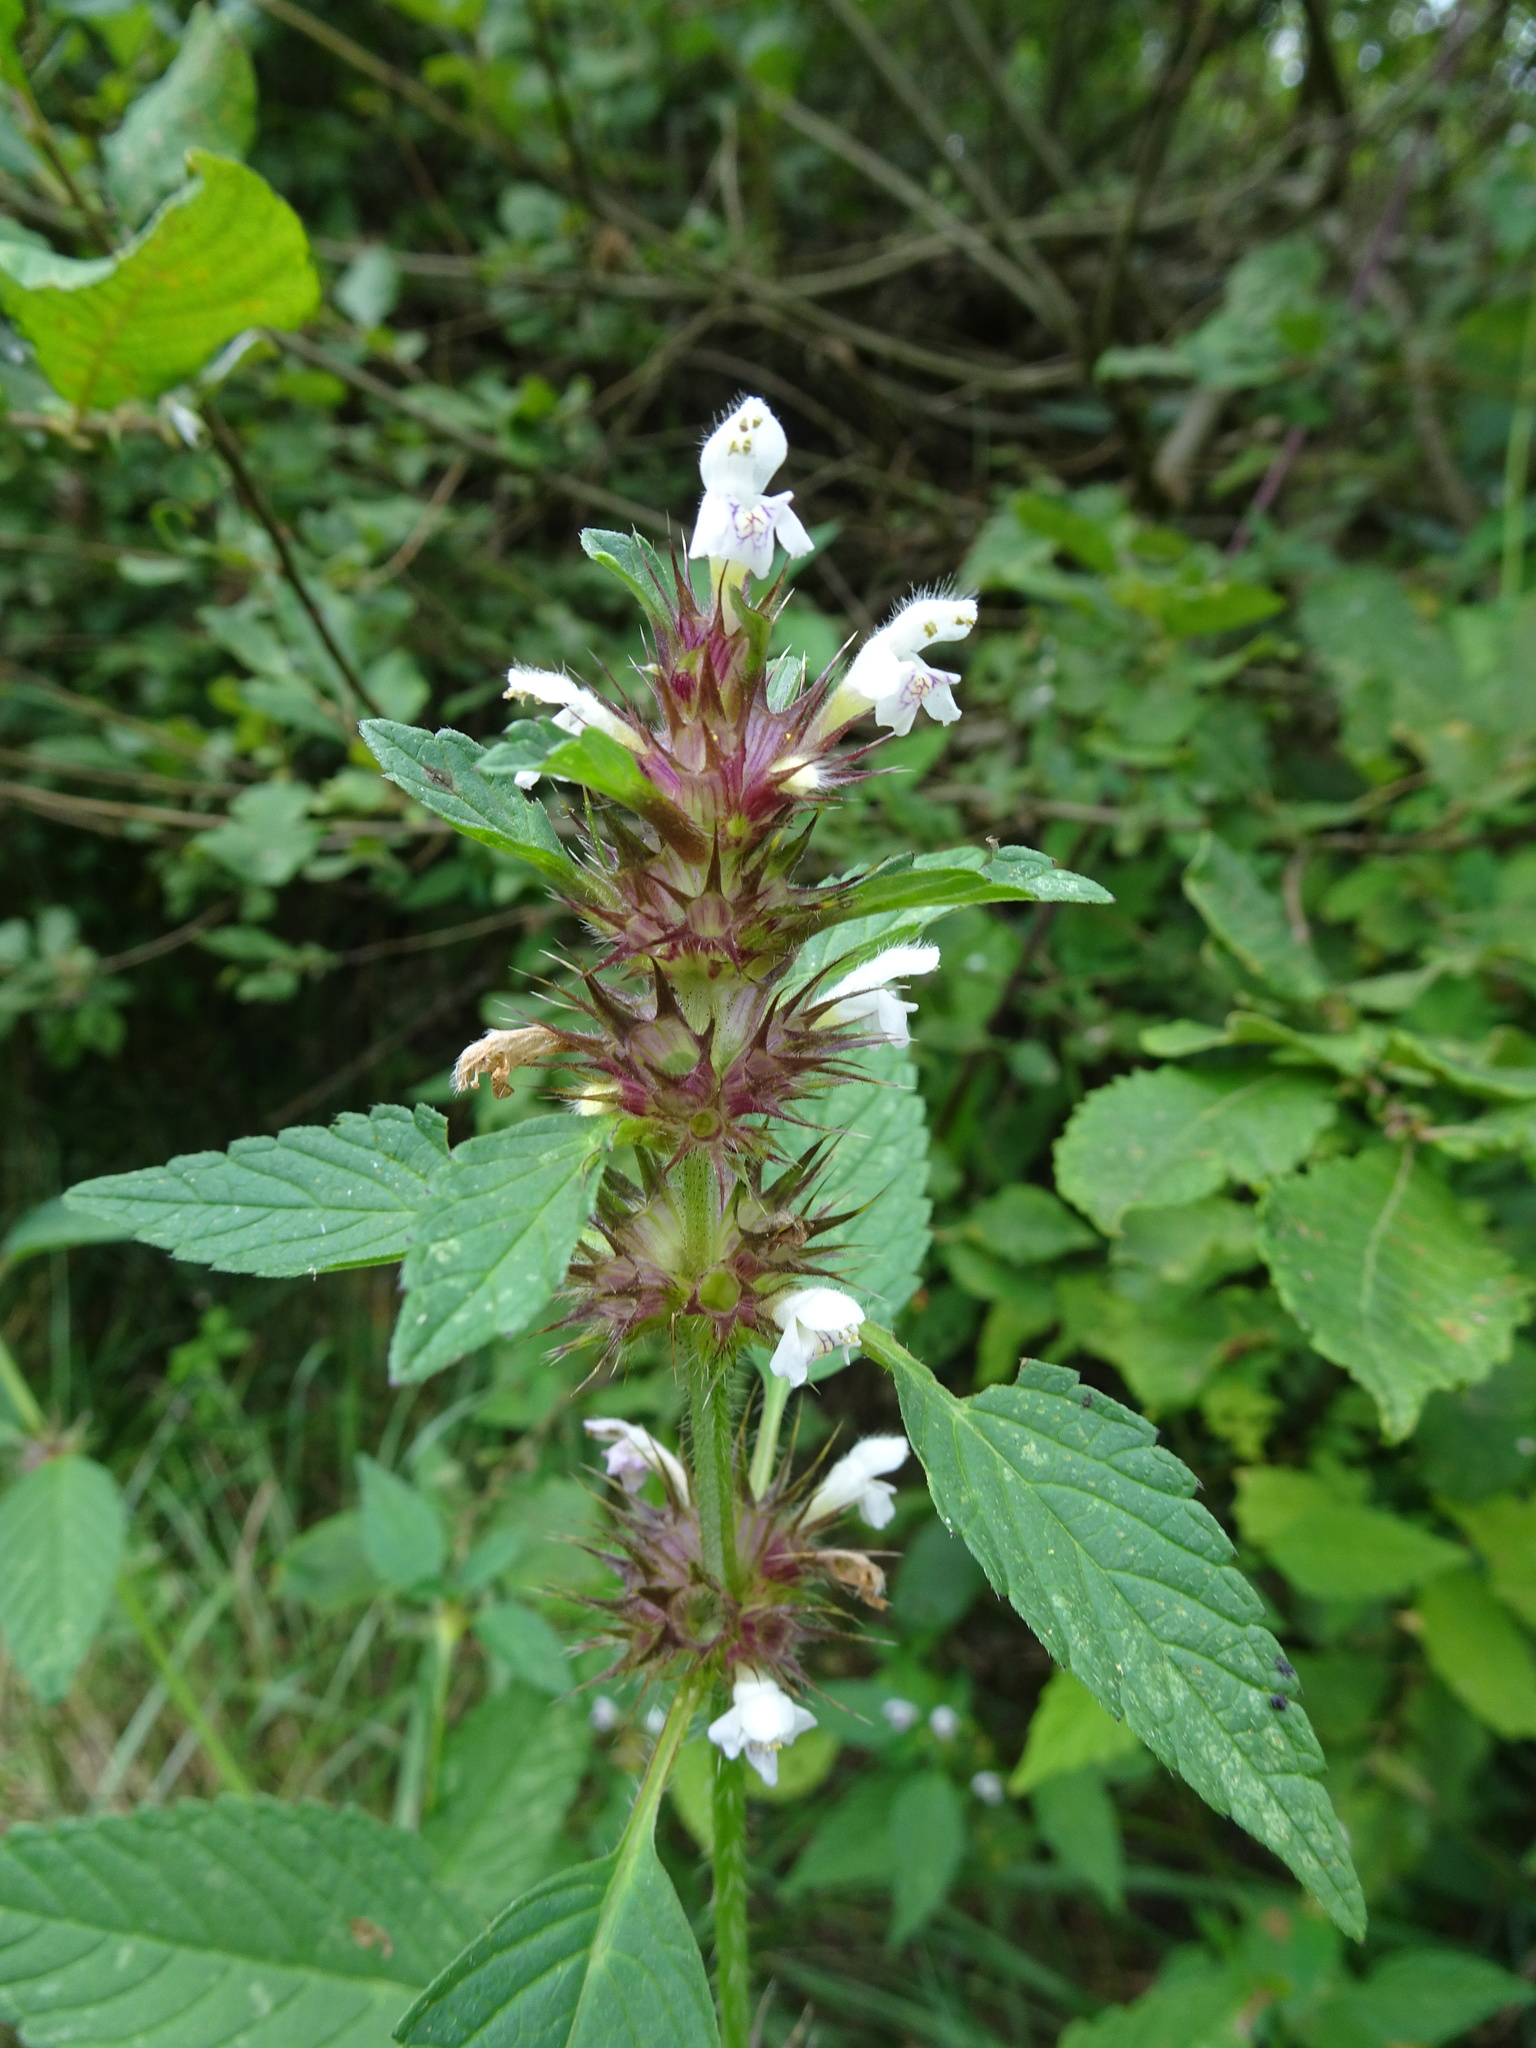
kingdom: Plantae
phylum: Tracheophyta
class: Magnoliopsida
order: Lamiales
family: Lamiaceae
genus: Galeopsis
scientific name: Galeopsis tetrahit
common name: Common hemp-nettle
